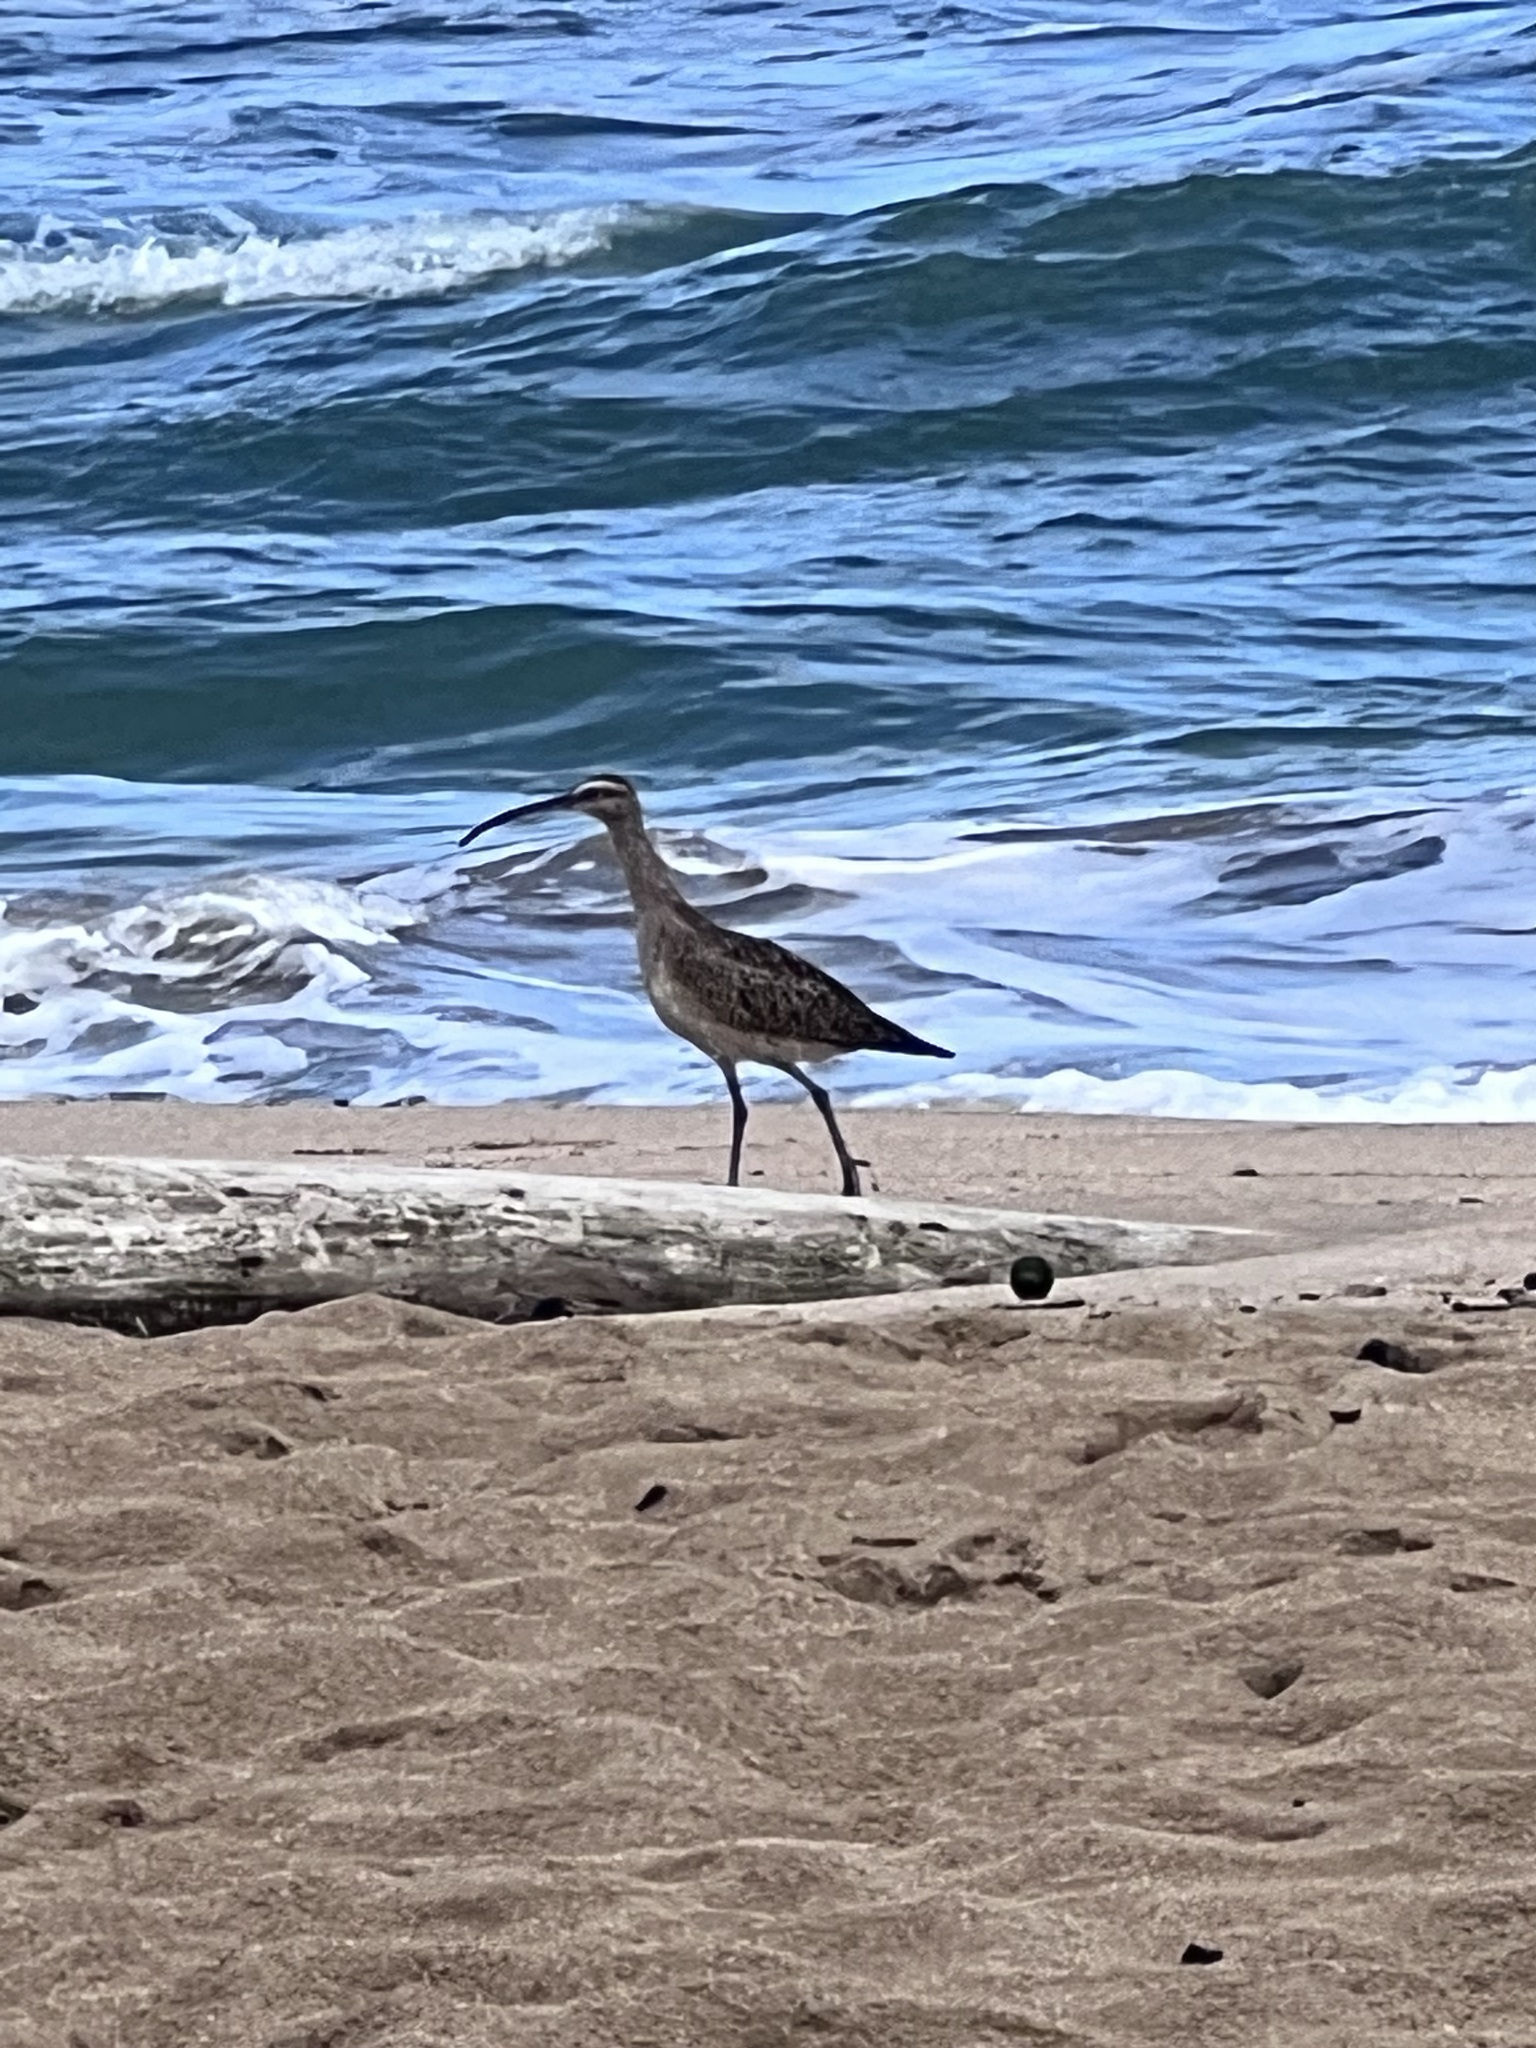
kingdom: Animalia
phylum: Chordata
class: Aves
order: Charadriiformes
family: Scolopacidae
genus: Numenius
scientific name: Numenius phaeopus
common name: Whimbrel
